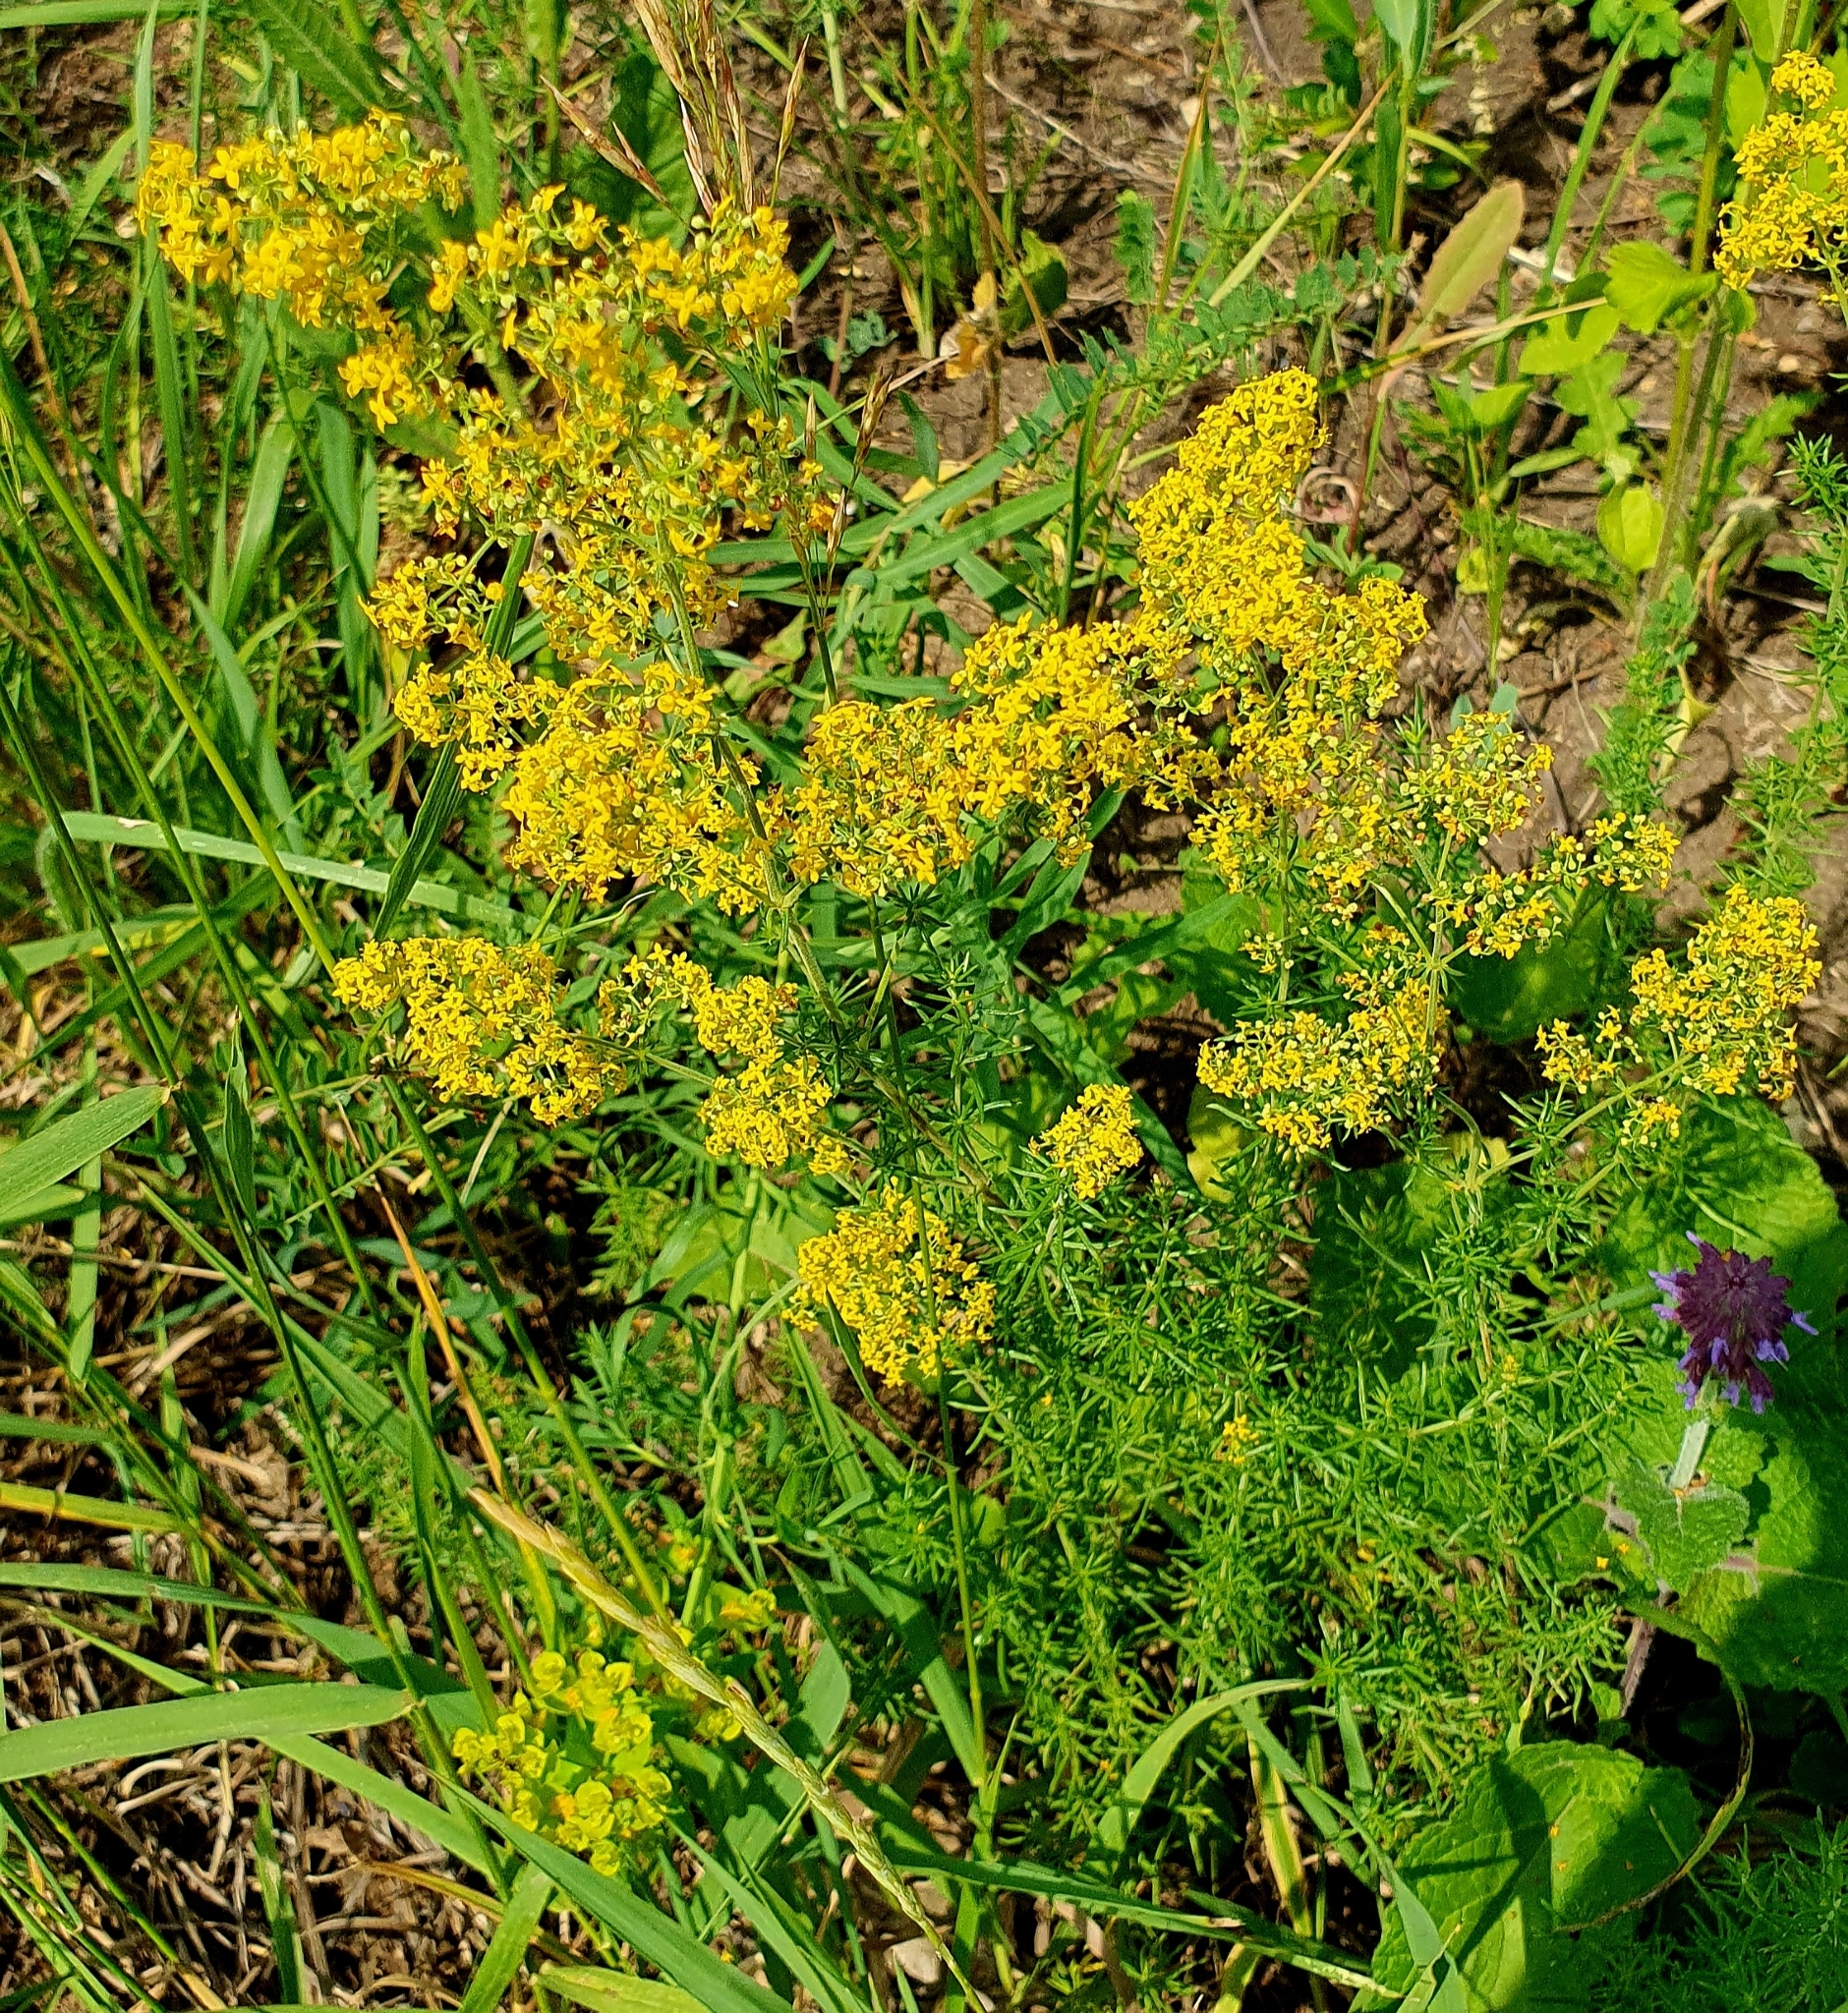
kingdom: Plantae
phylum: Tracheophyta
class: Magnoliopsida
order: Gentianales
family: Rubiaceae
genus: Galium
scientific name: Galium verum
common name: Lady's bedstraw
